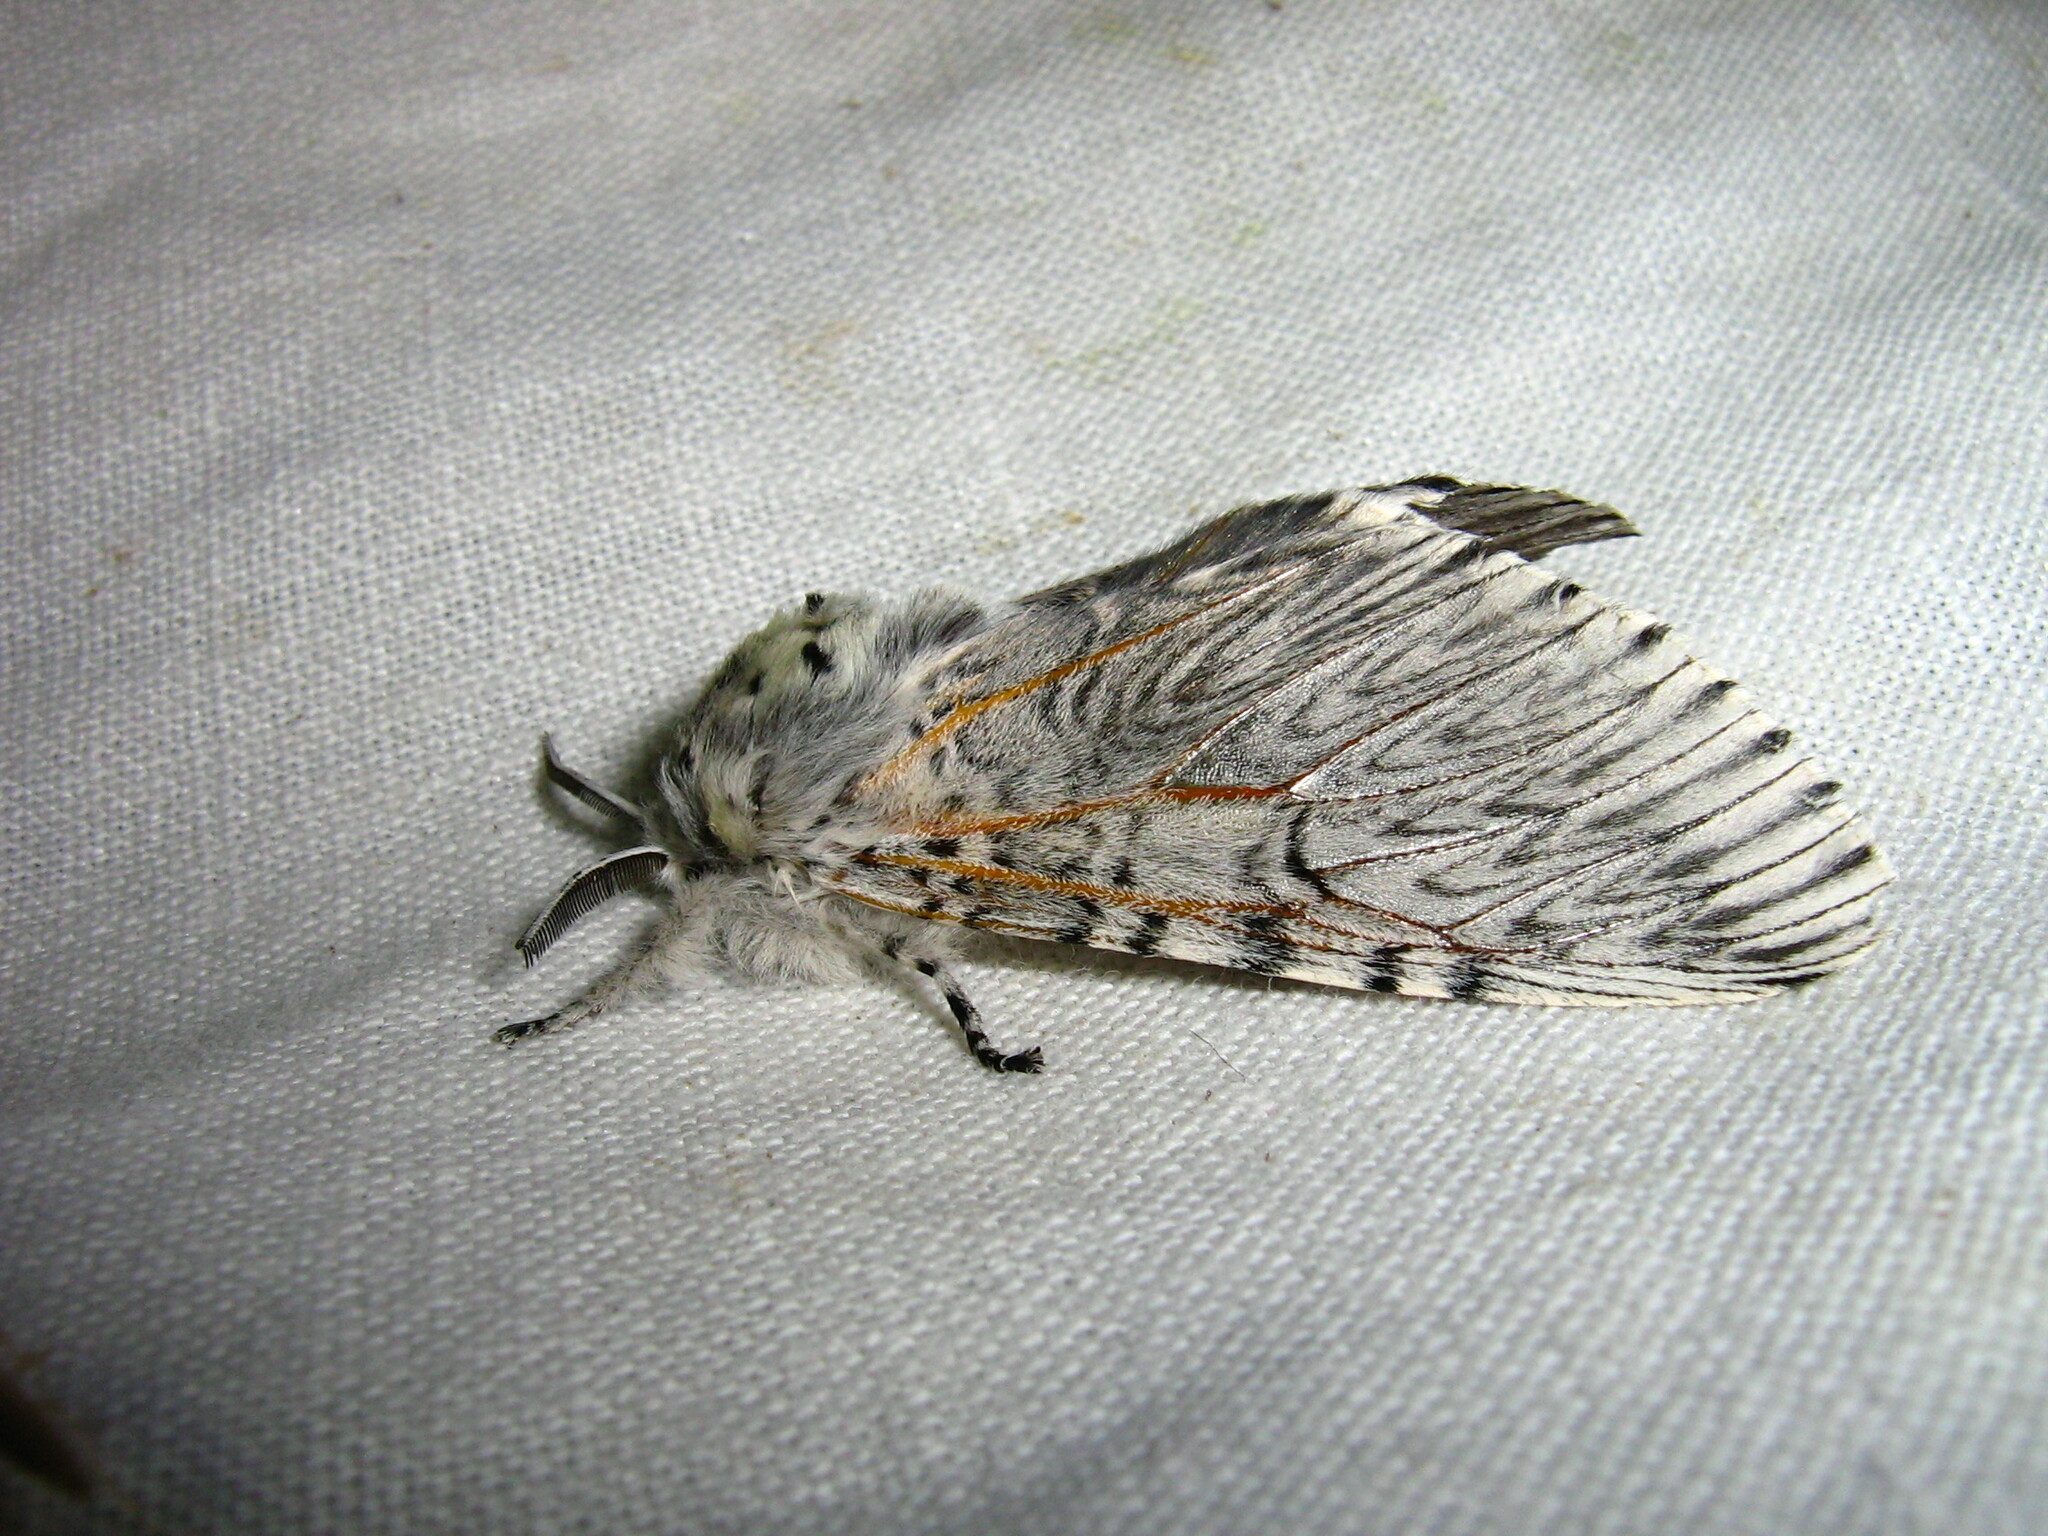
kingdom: Animalia
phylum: Arthropoda
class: Insecta
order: Lepidoptera
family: Notodontidae
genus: Cerura
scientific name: Cerura vinula
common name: Puss moth
